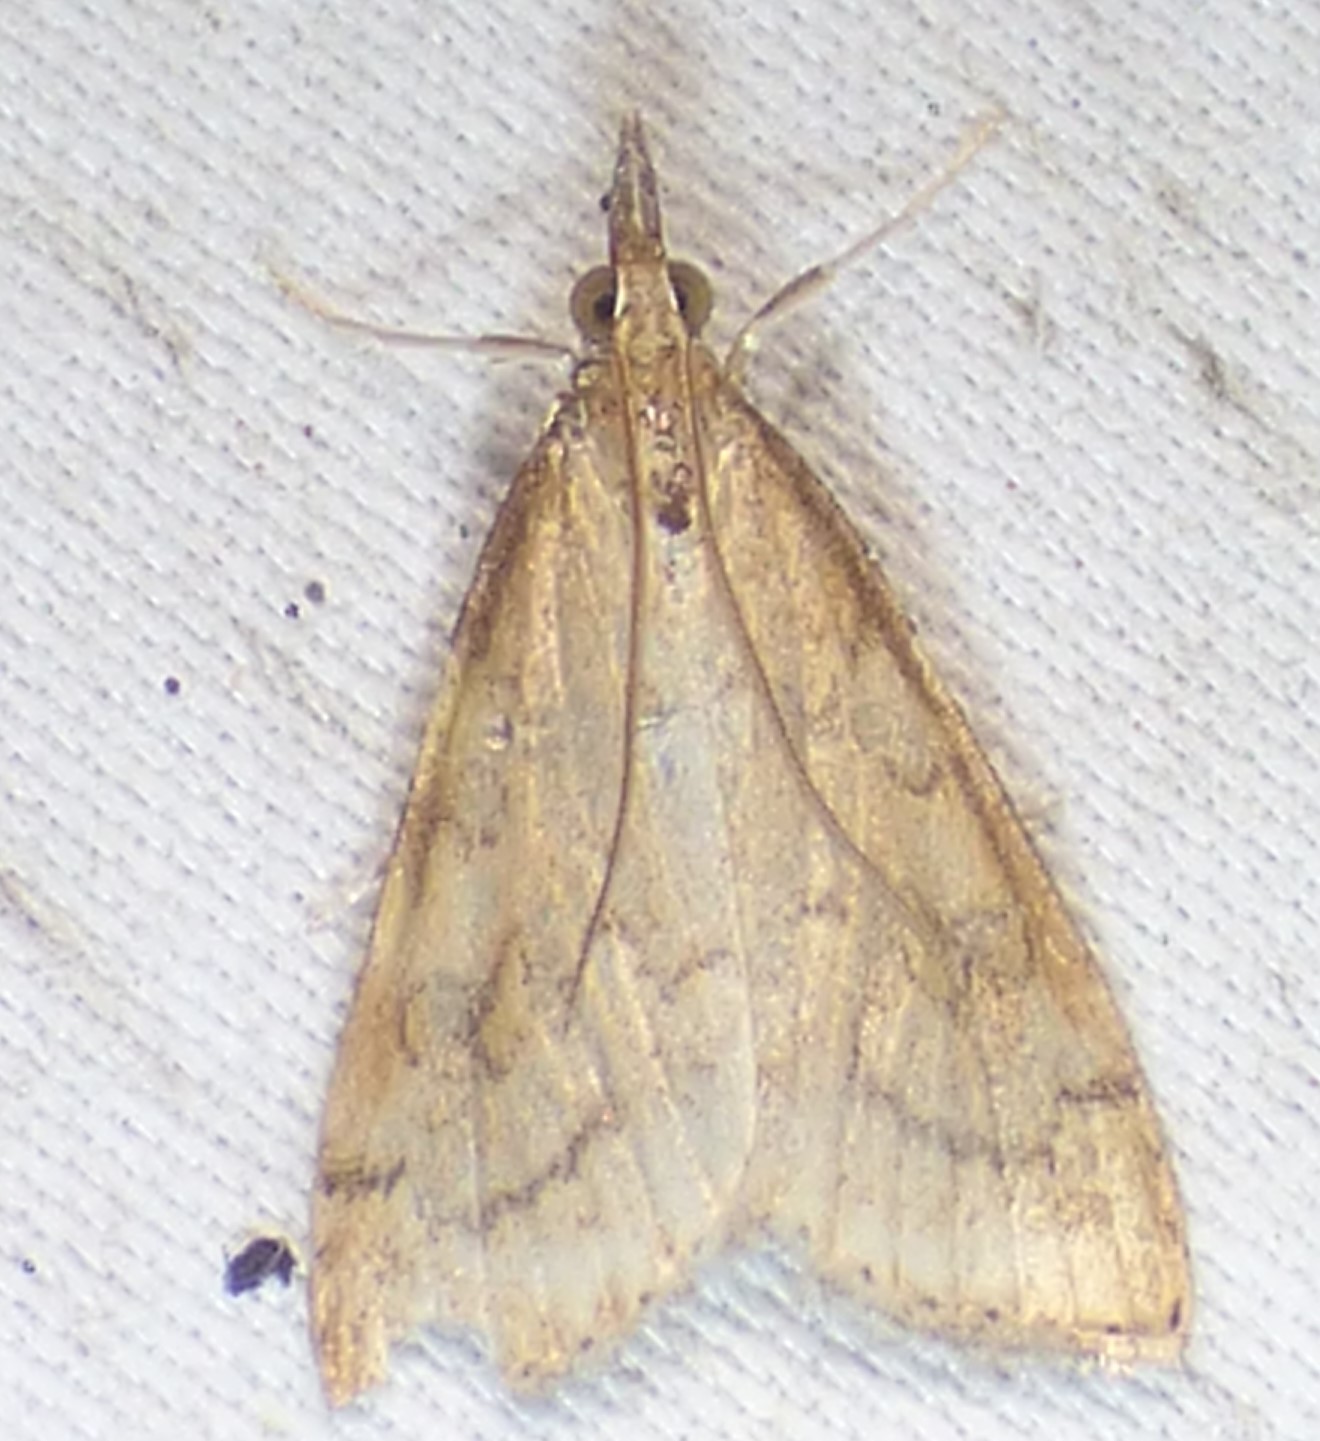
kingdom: Animalia
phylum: Arthropoda
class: Insecta
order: Lepidoptera
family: Crambidae
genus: Udea
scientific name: Udea rubigalis
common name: Celery leaftier moth
